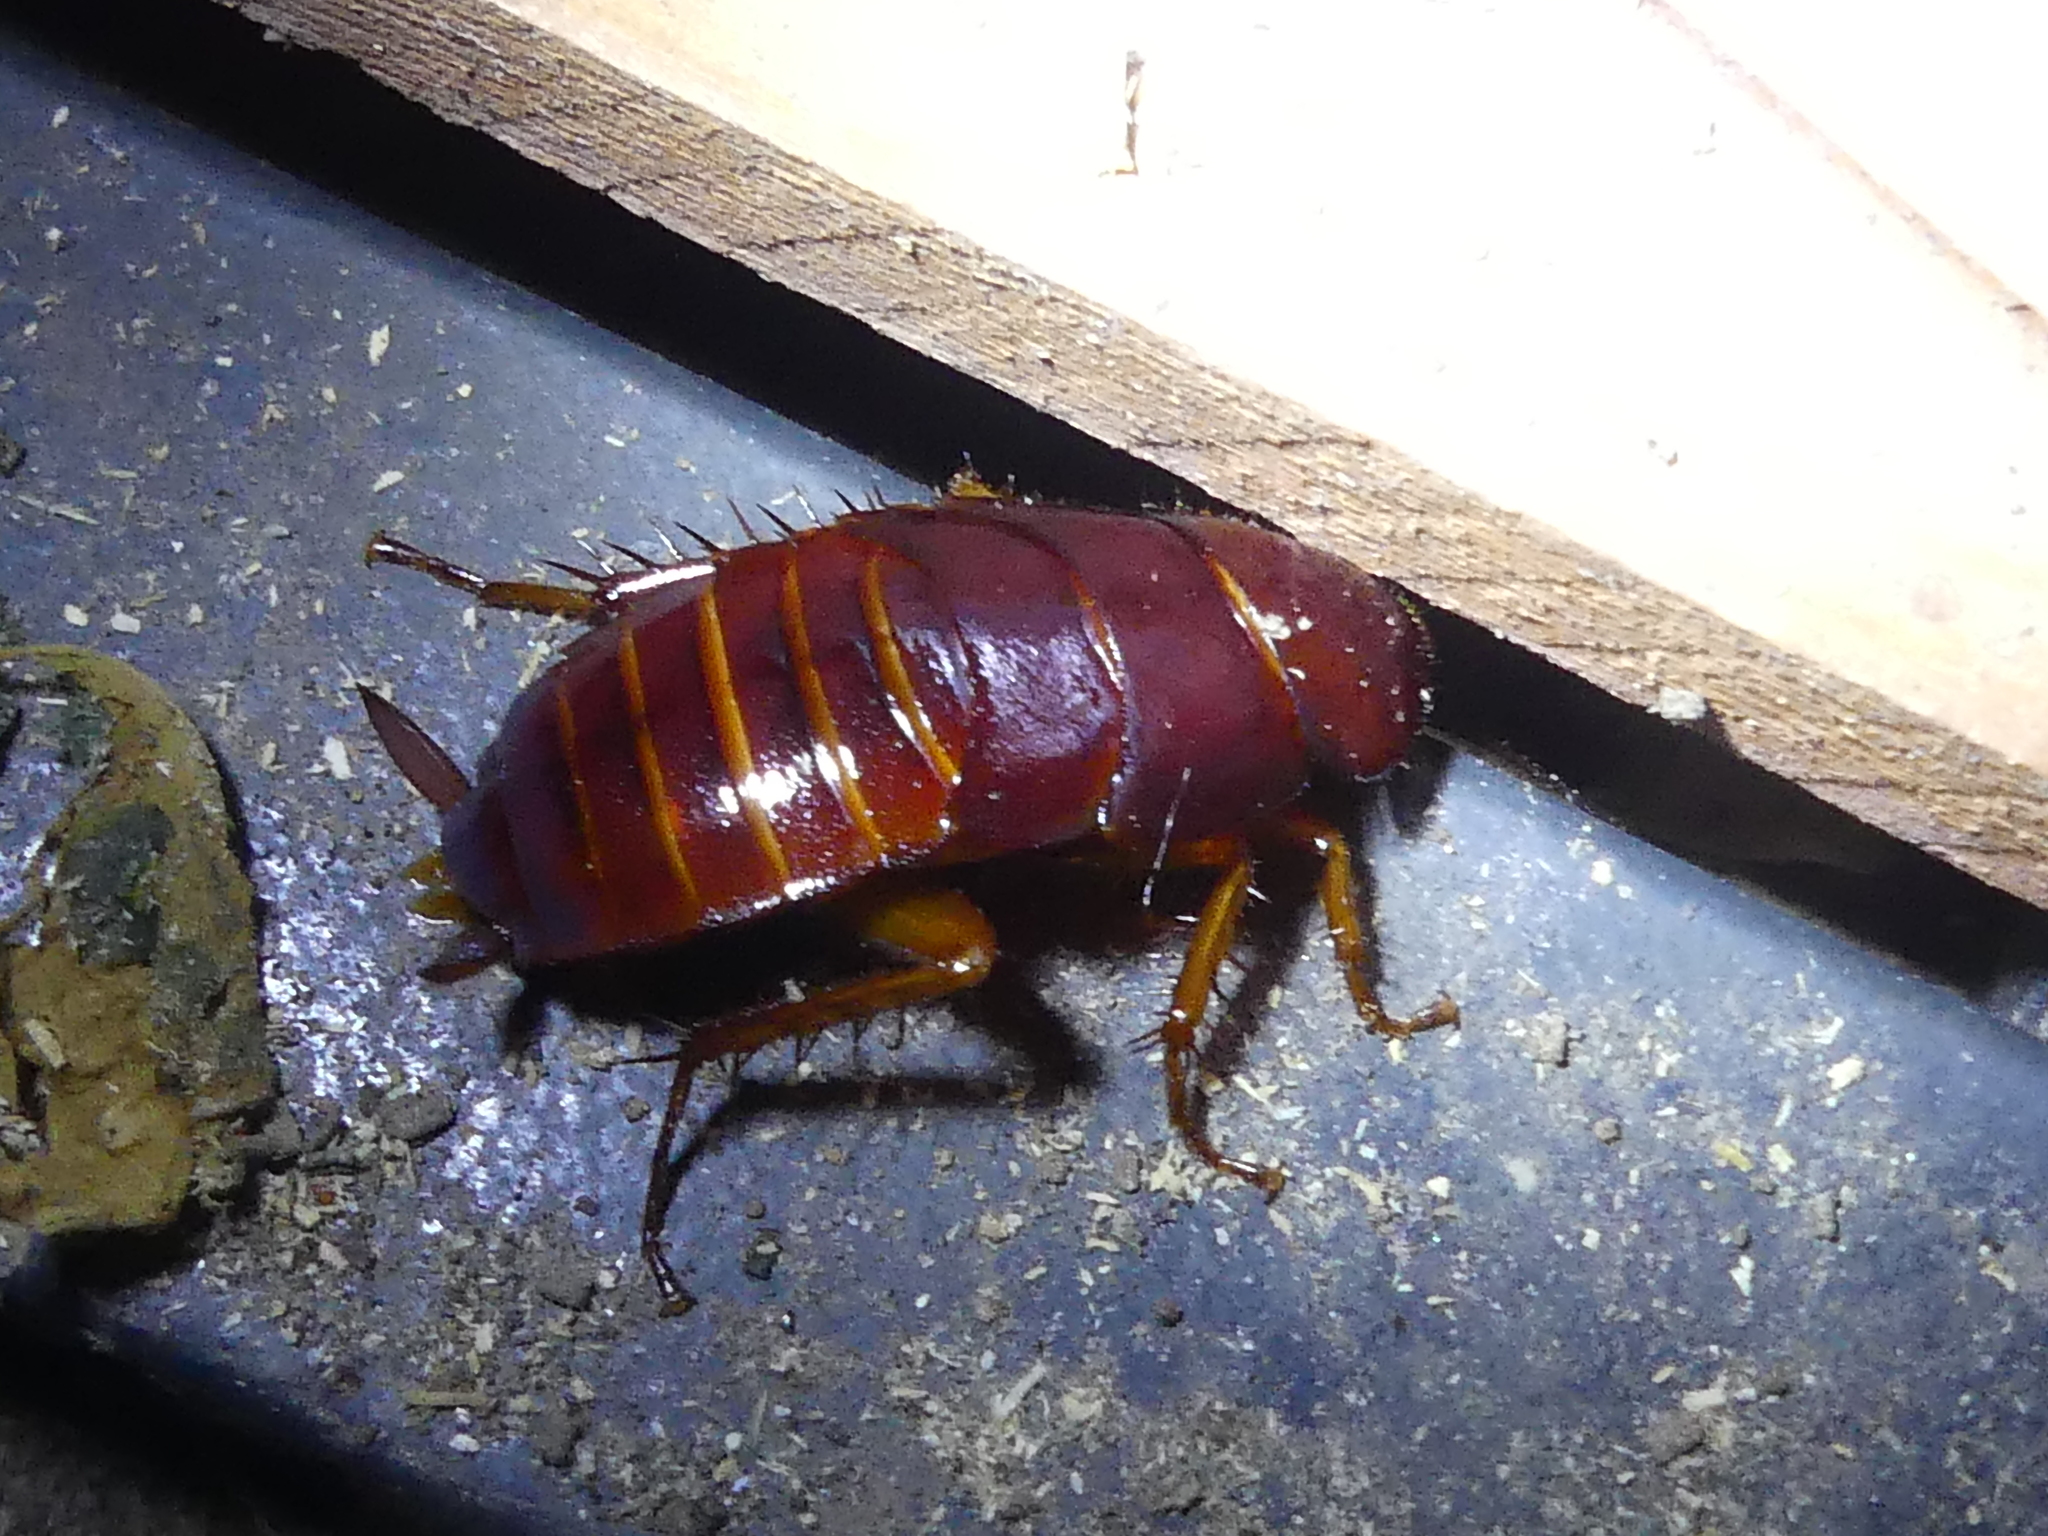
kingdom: Animalia
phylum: Arthropoda
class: Insecta
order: Blattodea
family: Blattidae
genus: Periplaneta
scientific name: Periplaneta fuliginosa
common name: Smokeybrown cockroad
